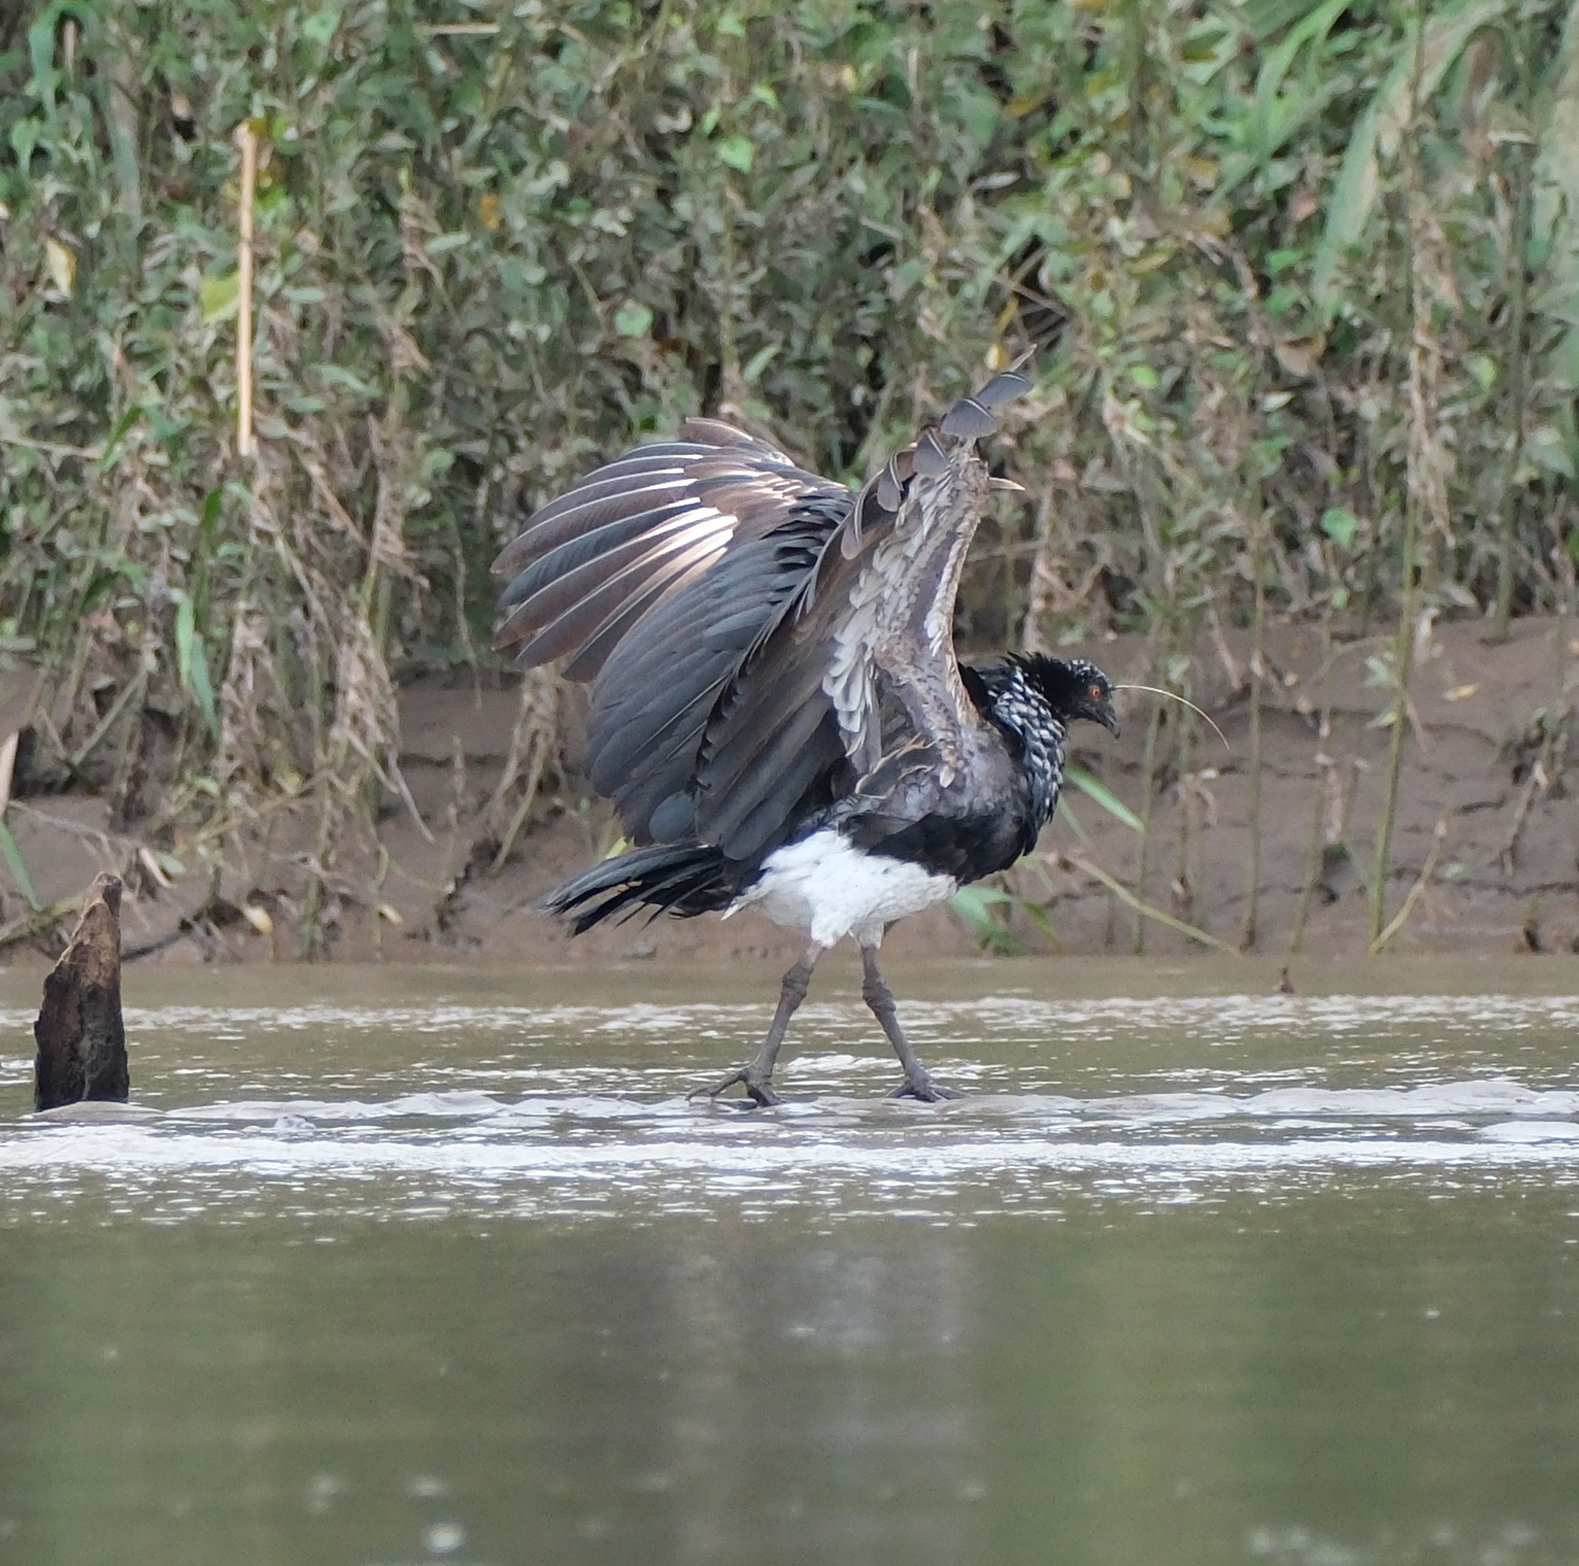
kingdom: Animalia
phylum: Chordata
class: Aves
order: Anseriformes
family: Anhimidae
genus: Anhima
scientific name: Anhima cornuta
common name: Horned screamer
